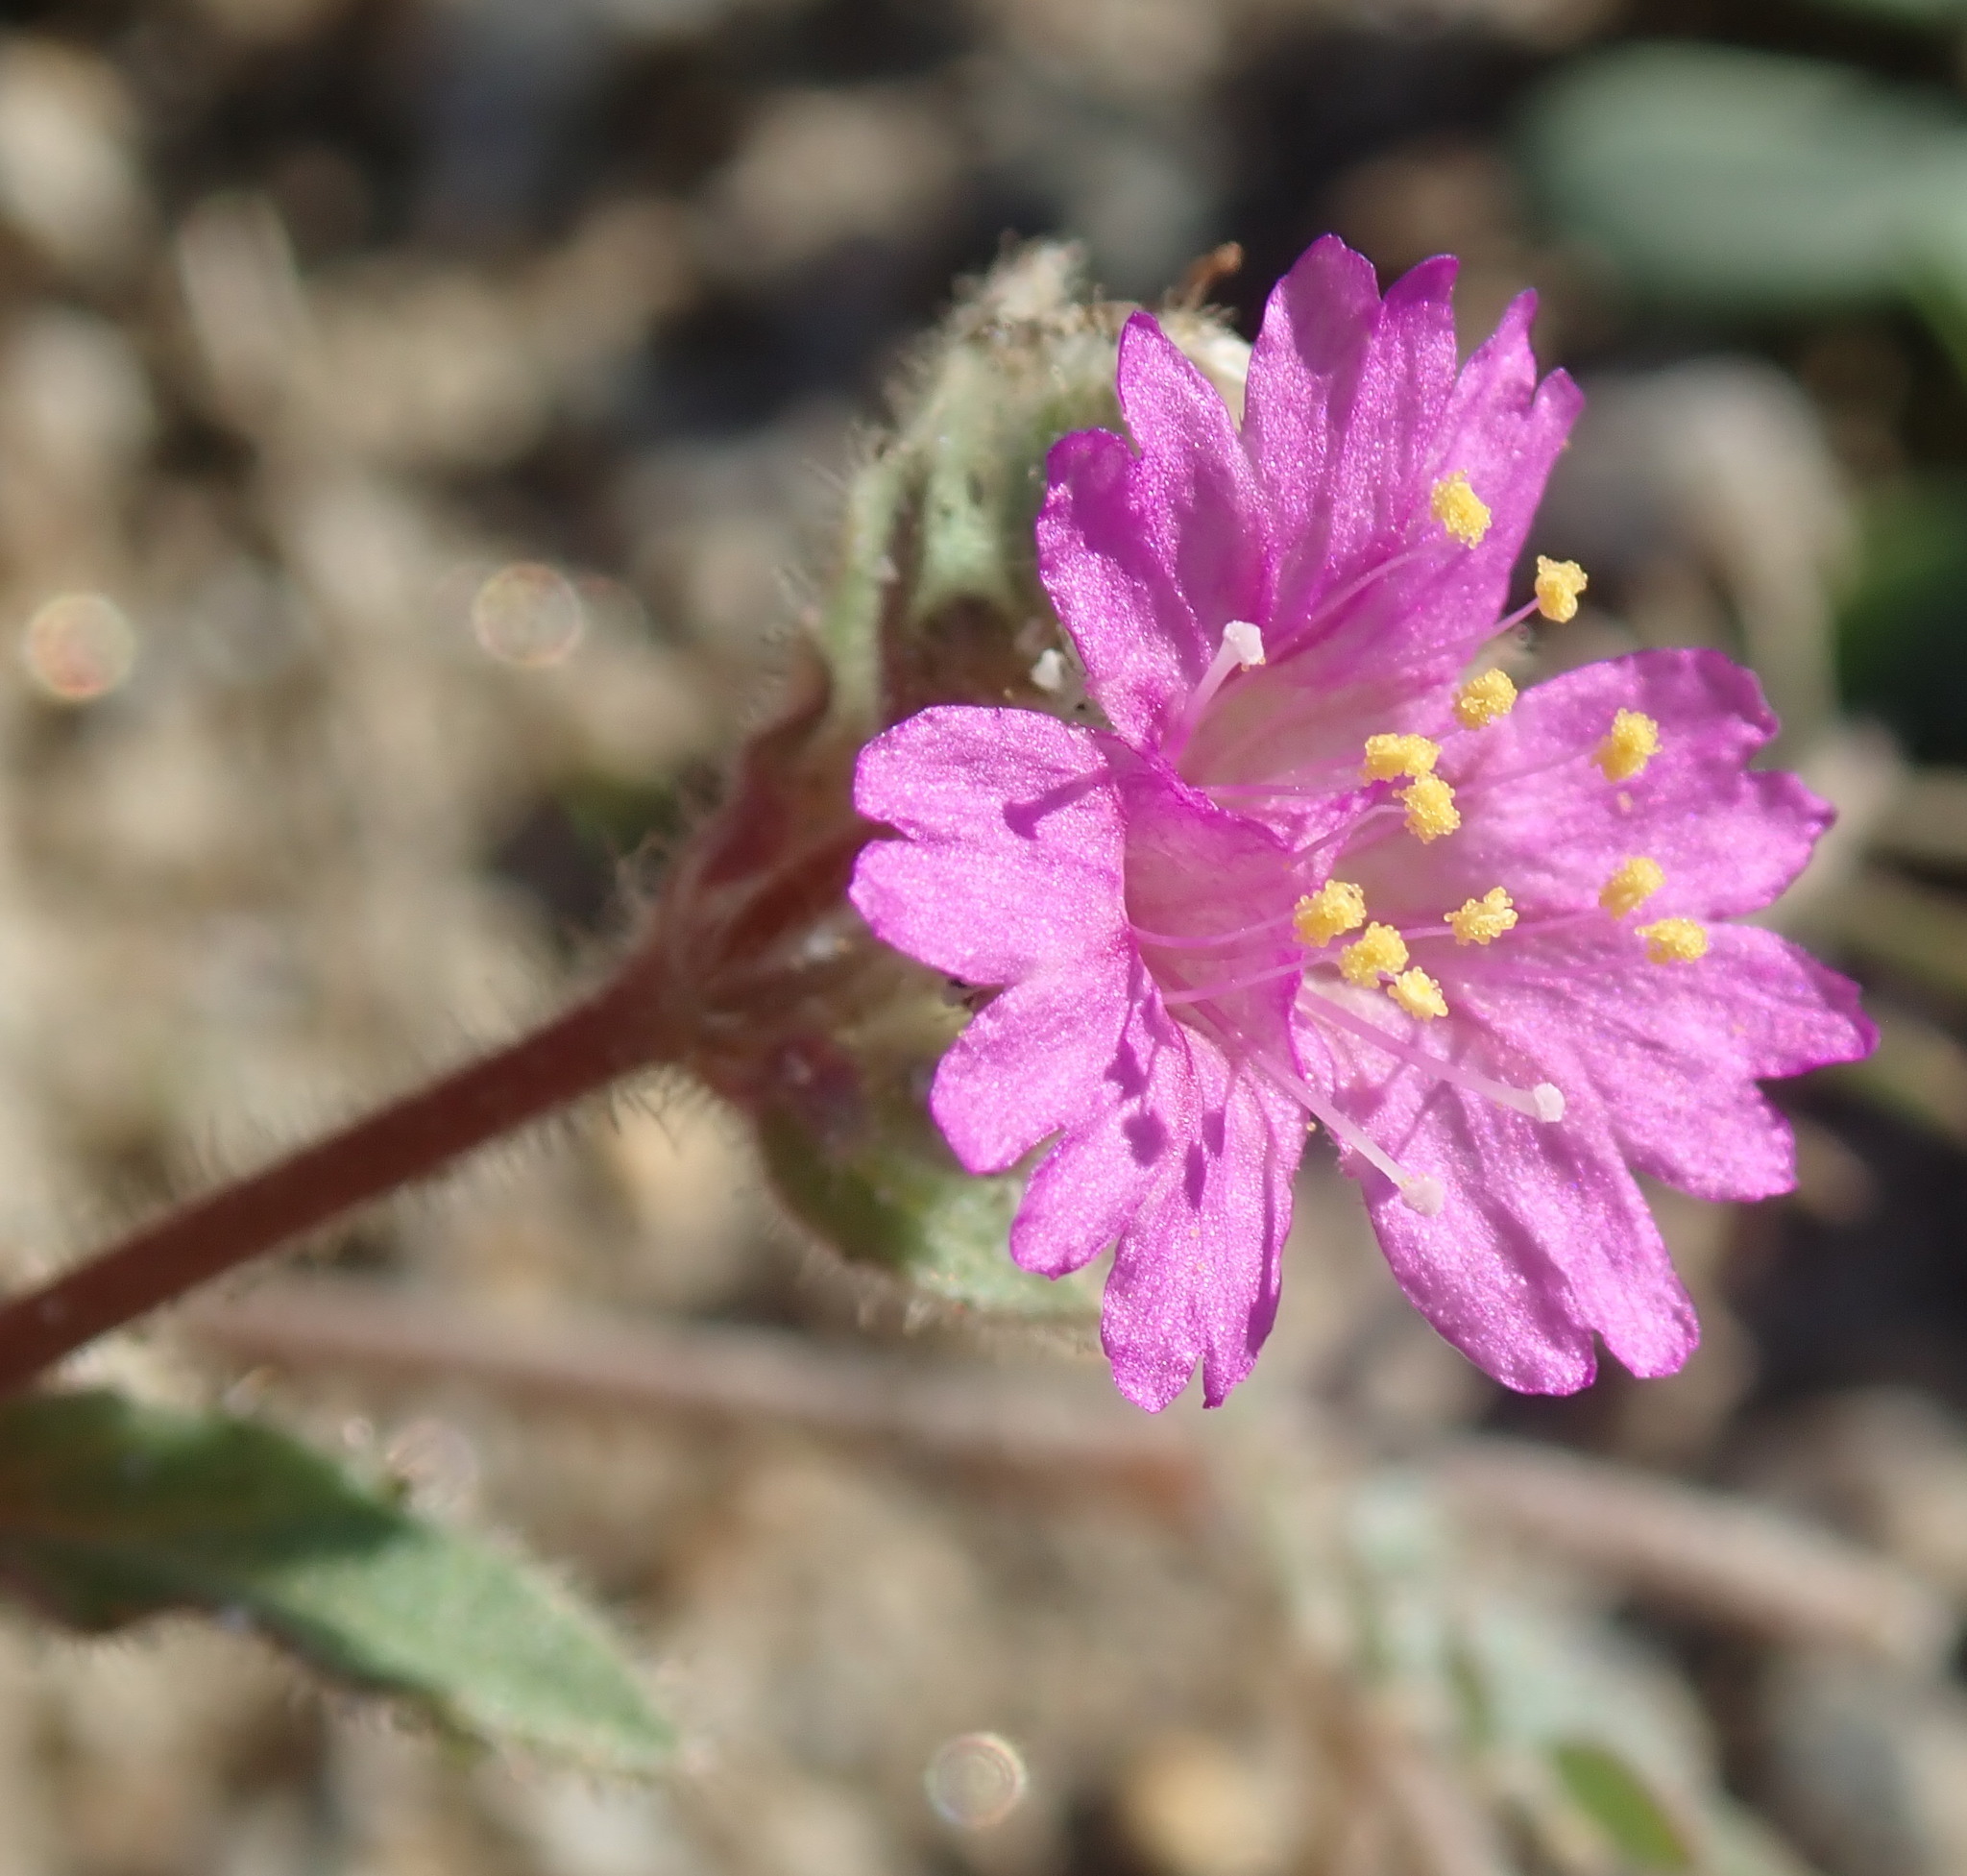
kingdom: Plantae
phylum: Tracheophyta
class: Magnoliopsida
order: Caryophyllales
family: Nyctaginaceae
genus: Allionia
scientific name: Allionia incarnata
